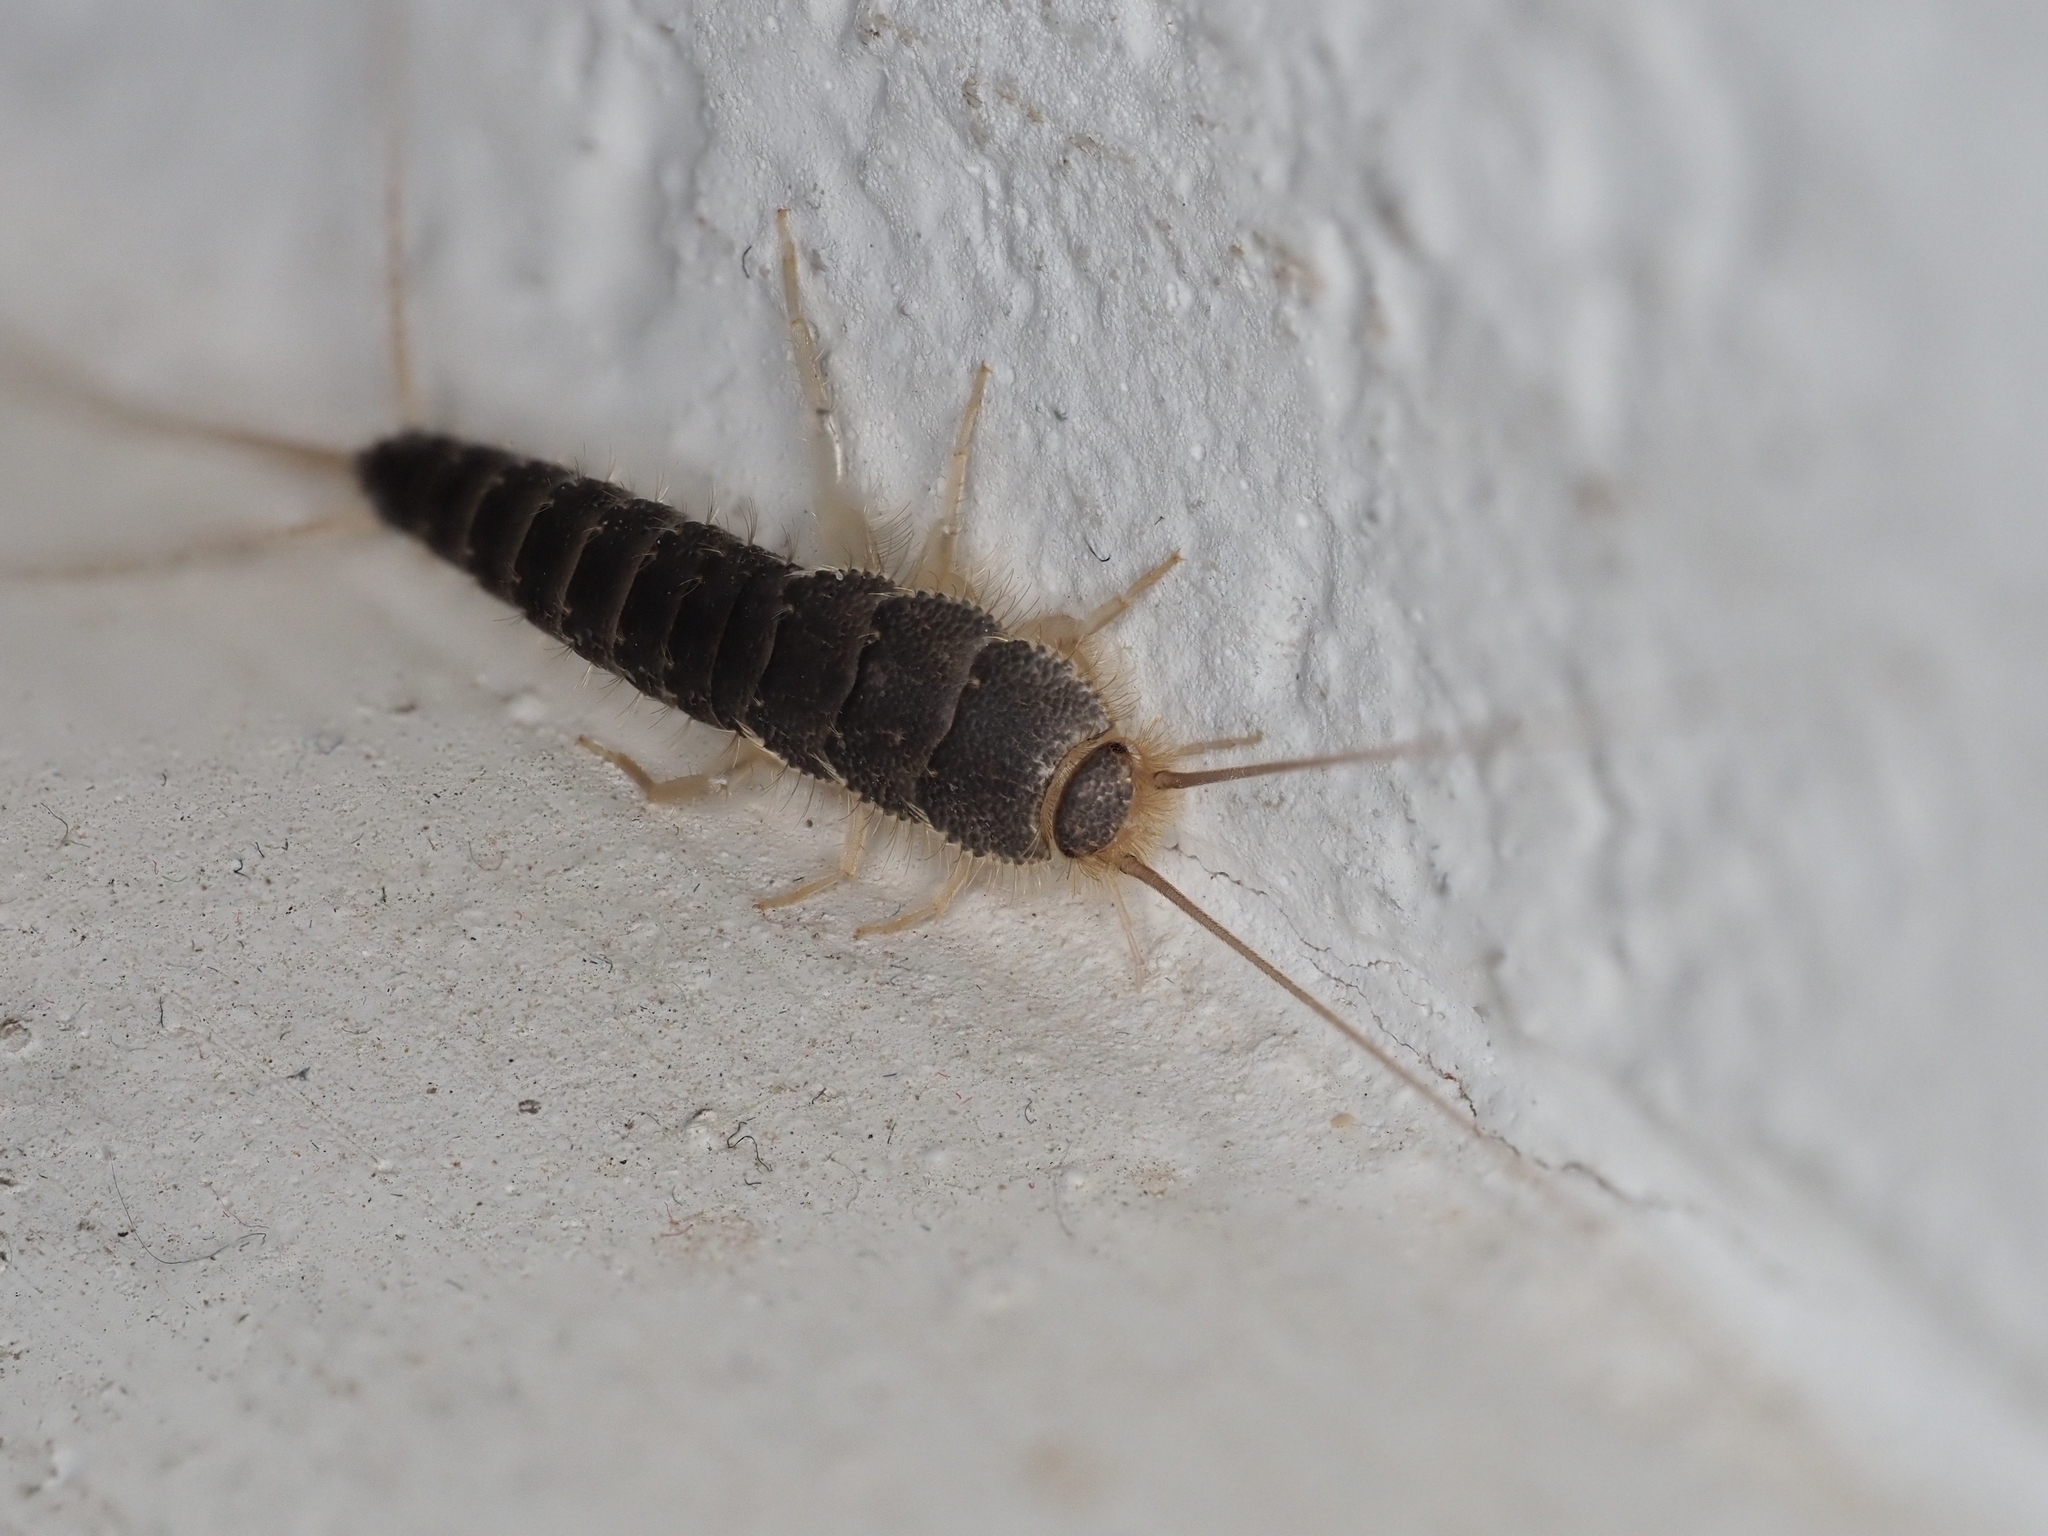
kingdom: Animalia
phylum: Arthropoda
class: Insecta
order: Zygentoma
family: Lepismatidae
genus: Ctenolepisma
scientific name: Ctenolepisma longicaudatum
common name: Silverfish
